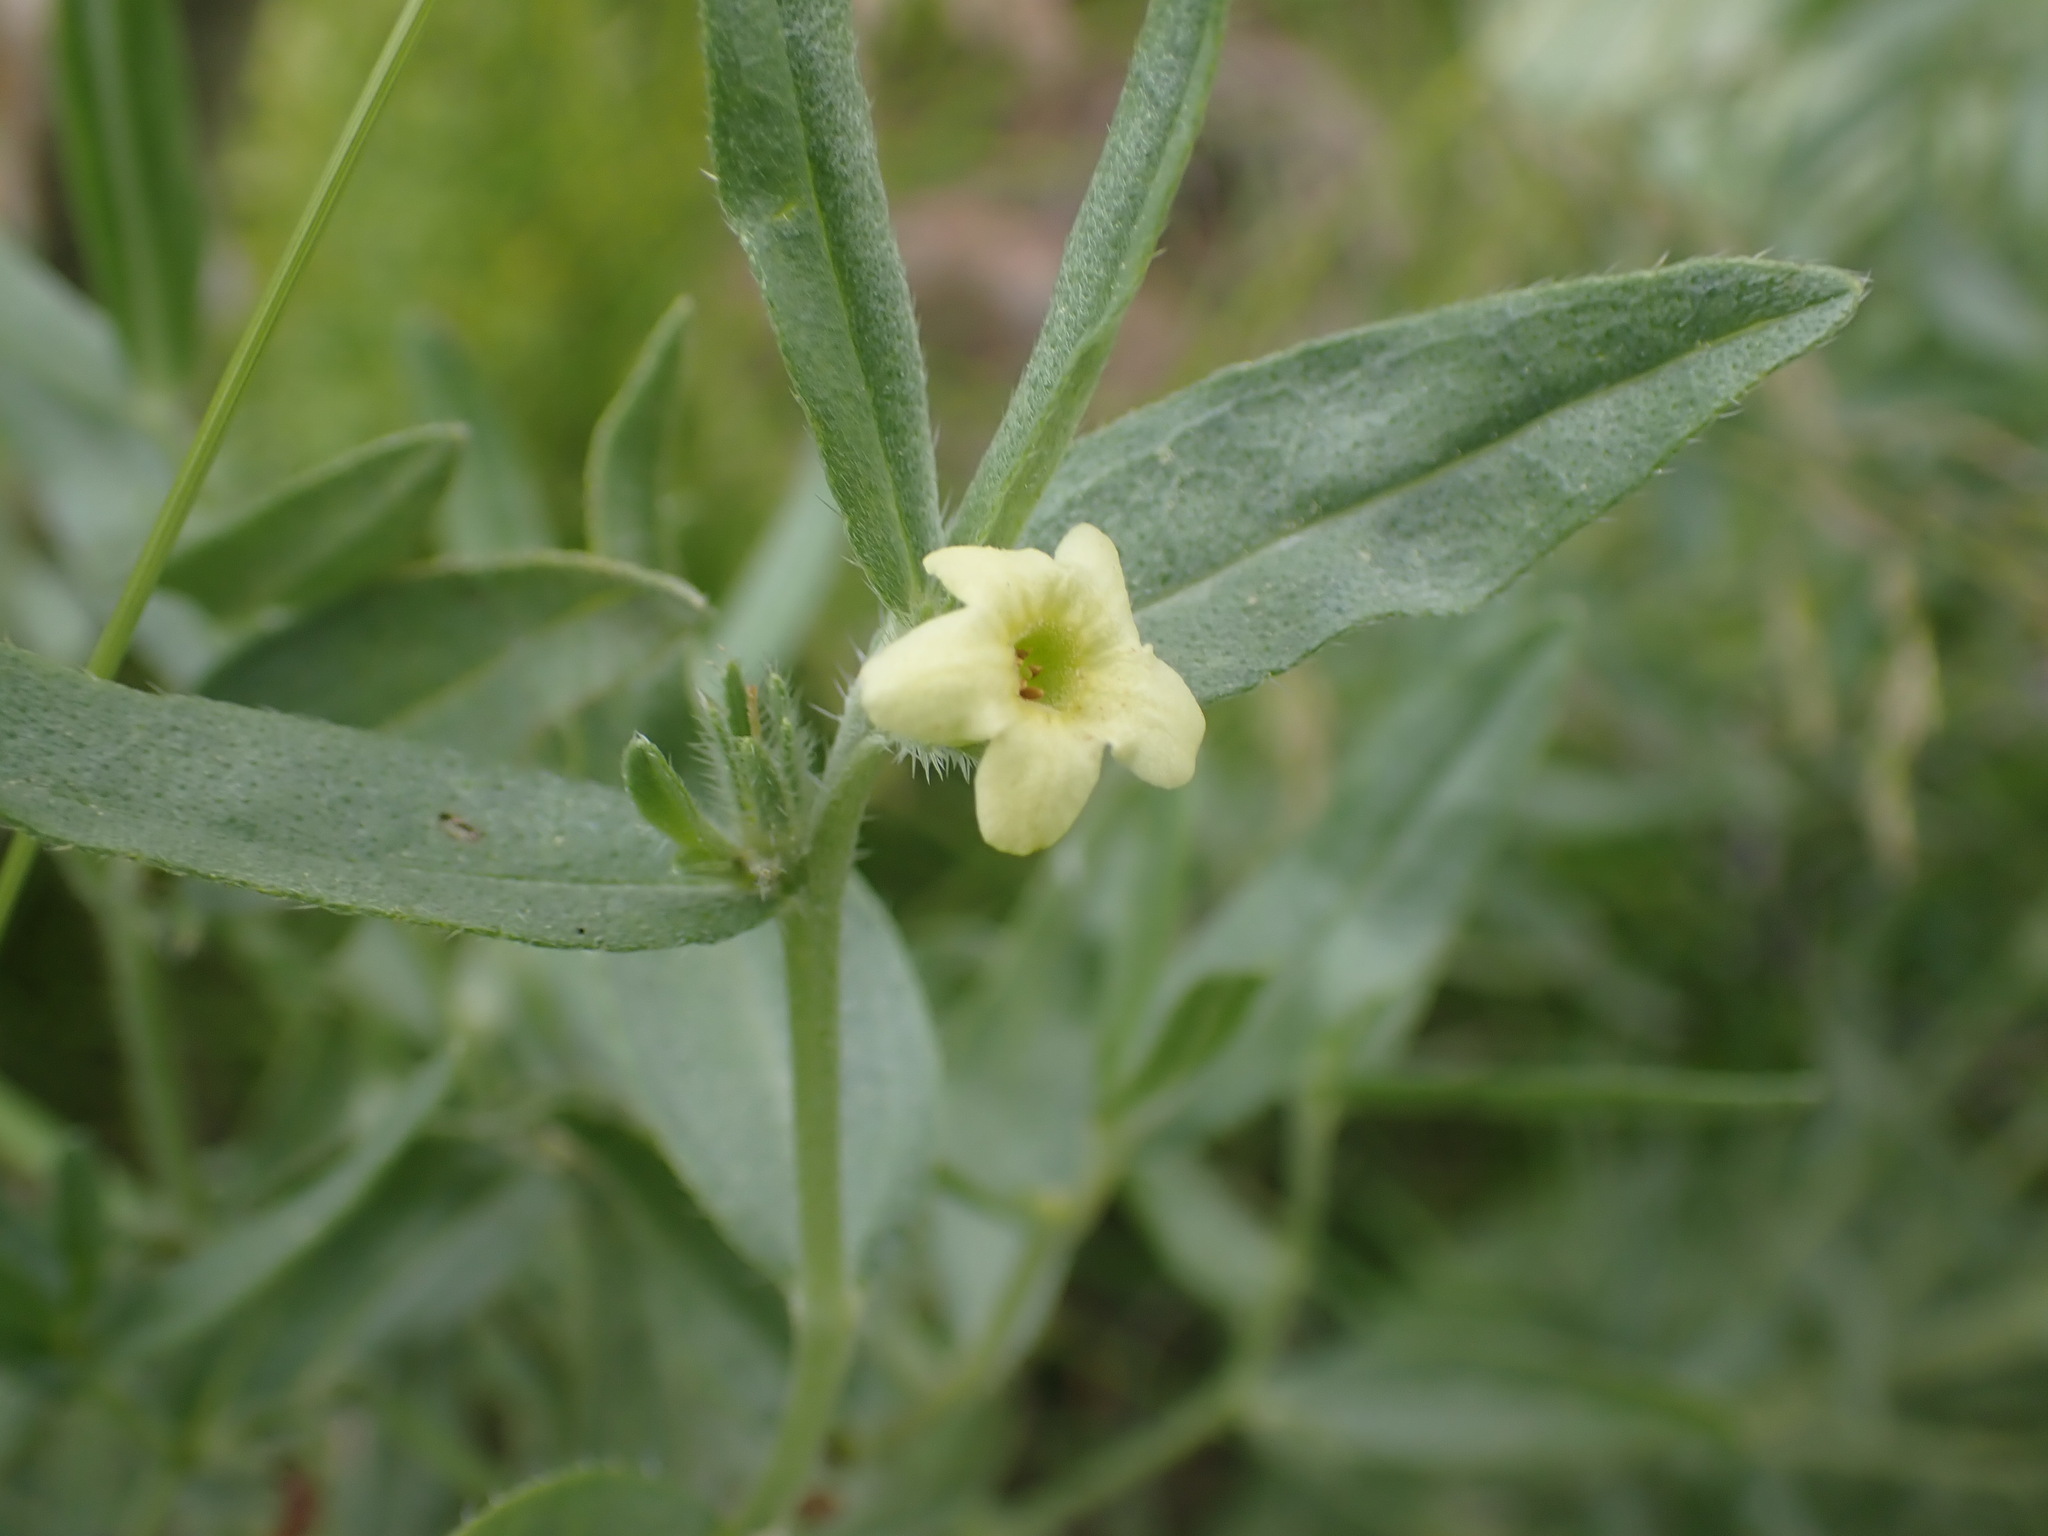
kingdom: Plantae
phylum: Tracheophyta
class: Magnoliopsida
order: Boraginales
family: Boraginaceae
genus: Lithospermum
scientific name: Lithospermum ruderale
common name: Western gromwell
